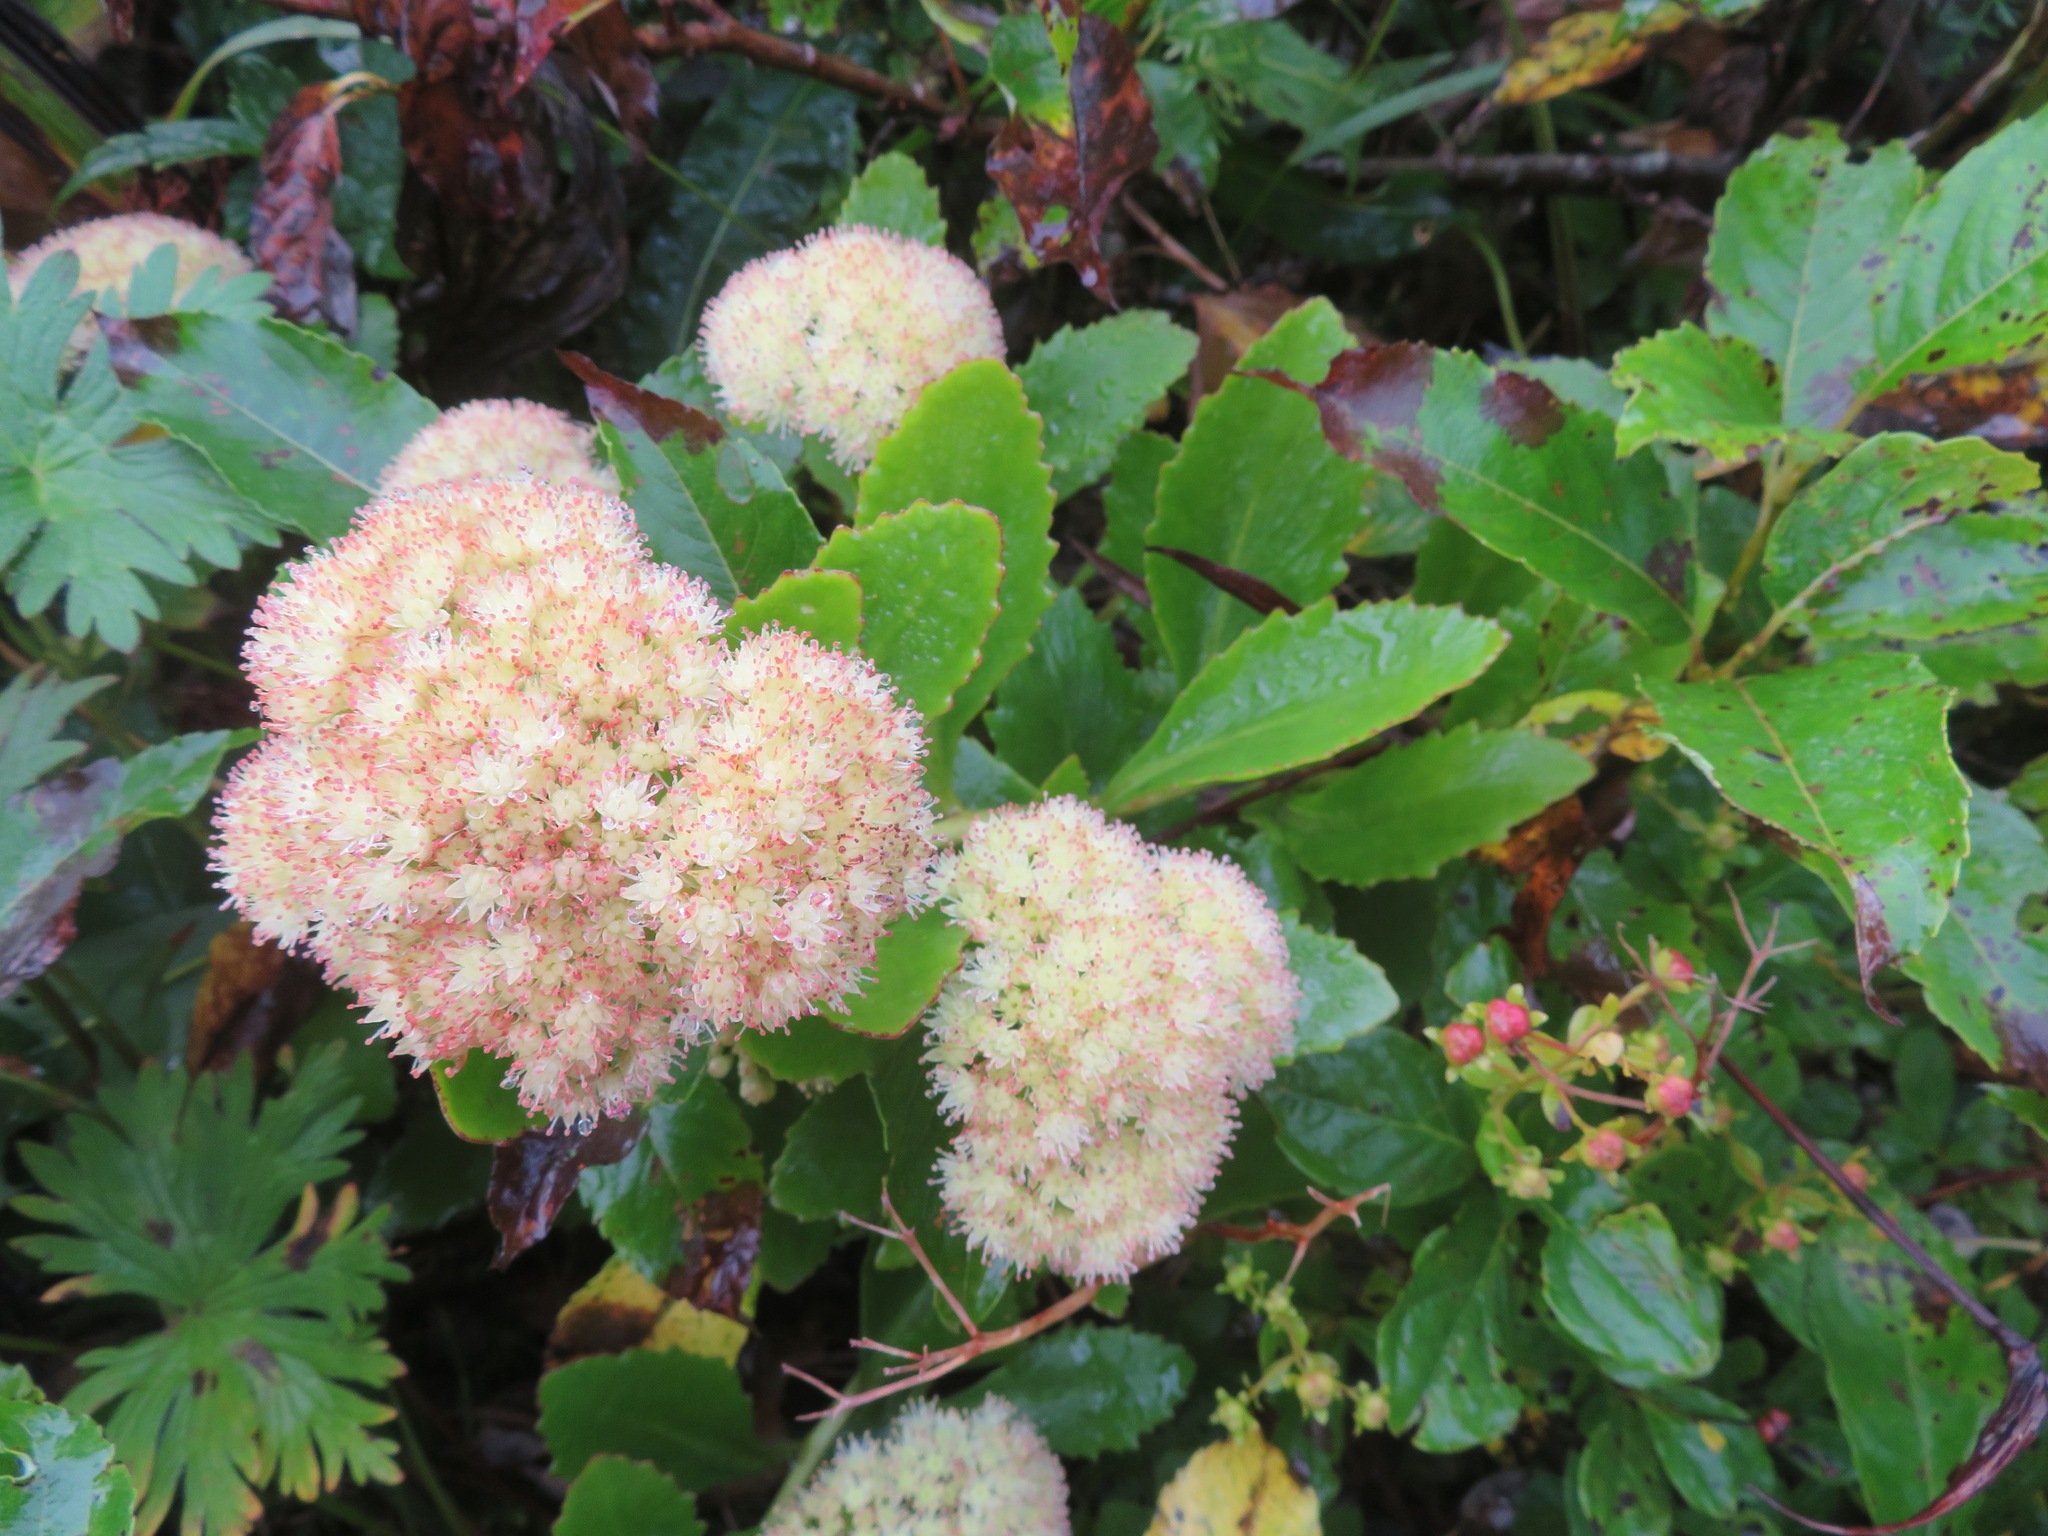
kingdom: Plantae
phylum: Tracheophyta
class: Magnoliopsida
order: Saxifragales
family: Crassulaceae
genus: Hylotelephium
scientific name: Hylotelephium sordidum
